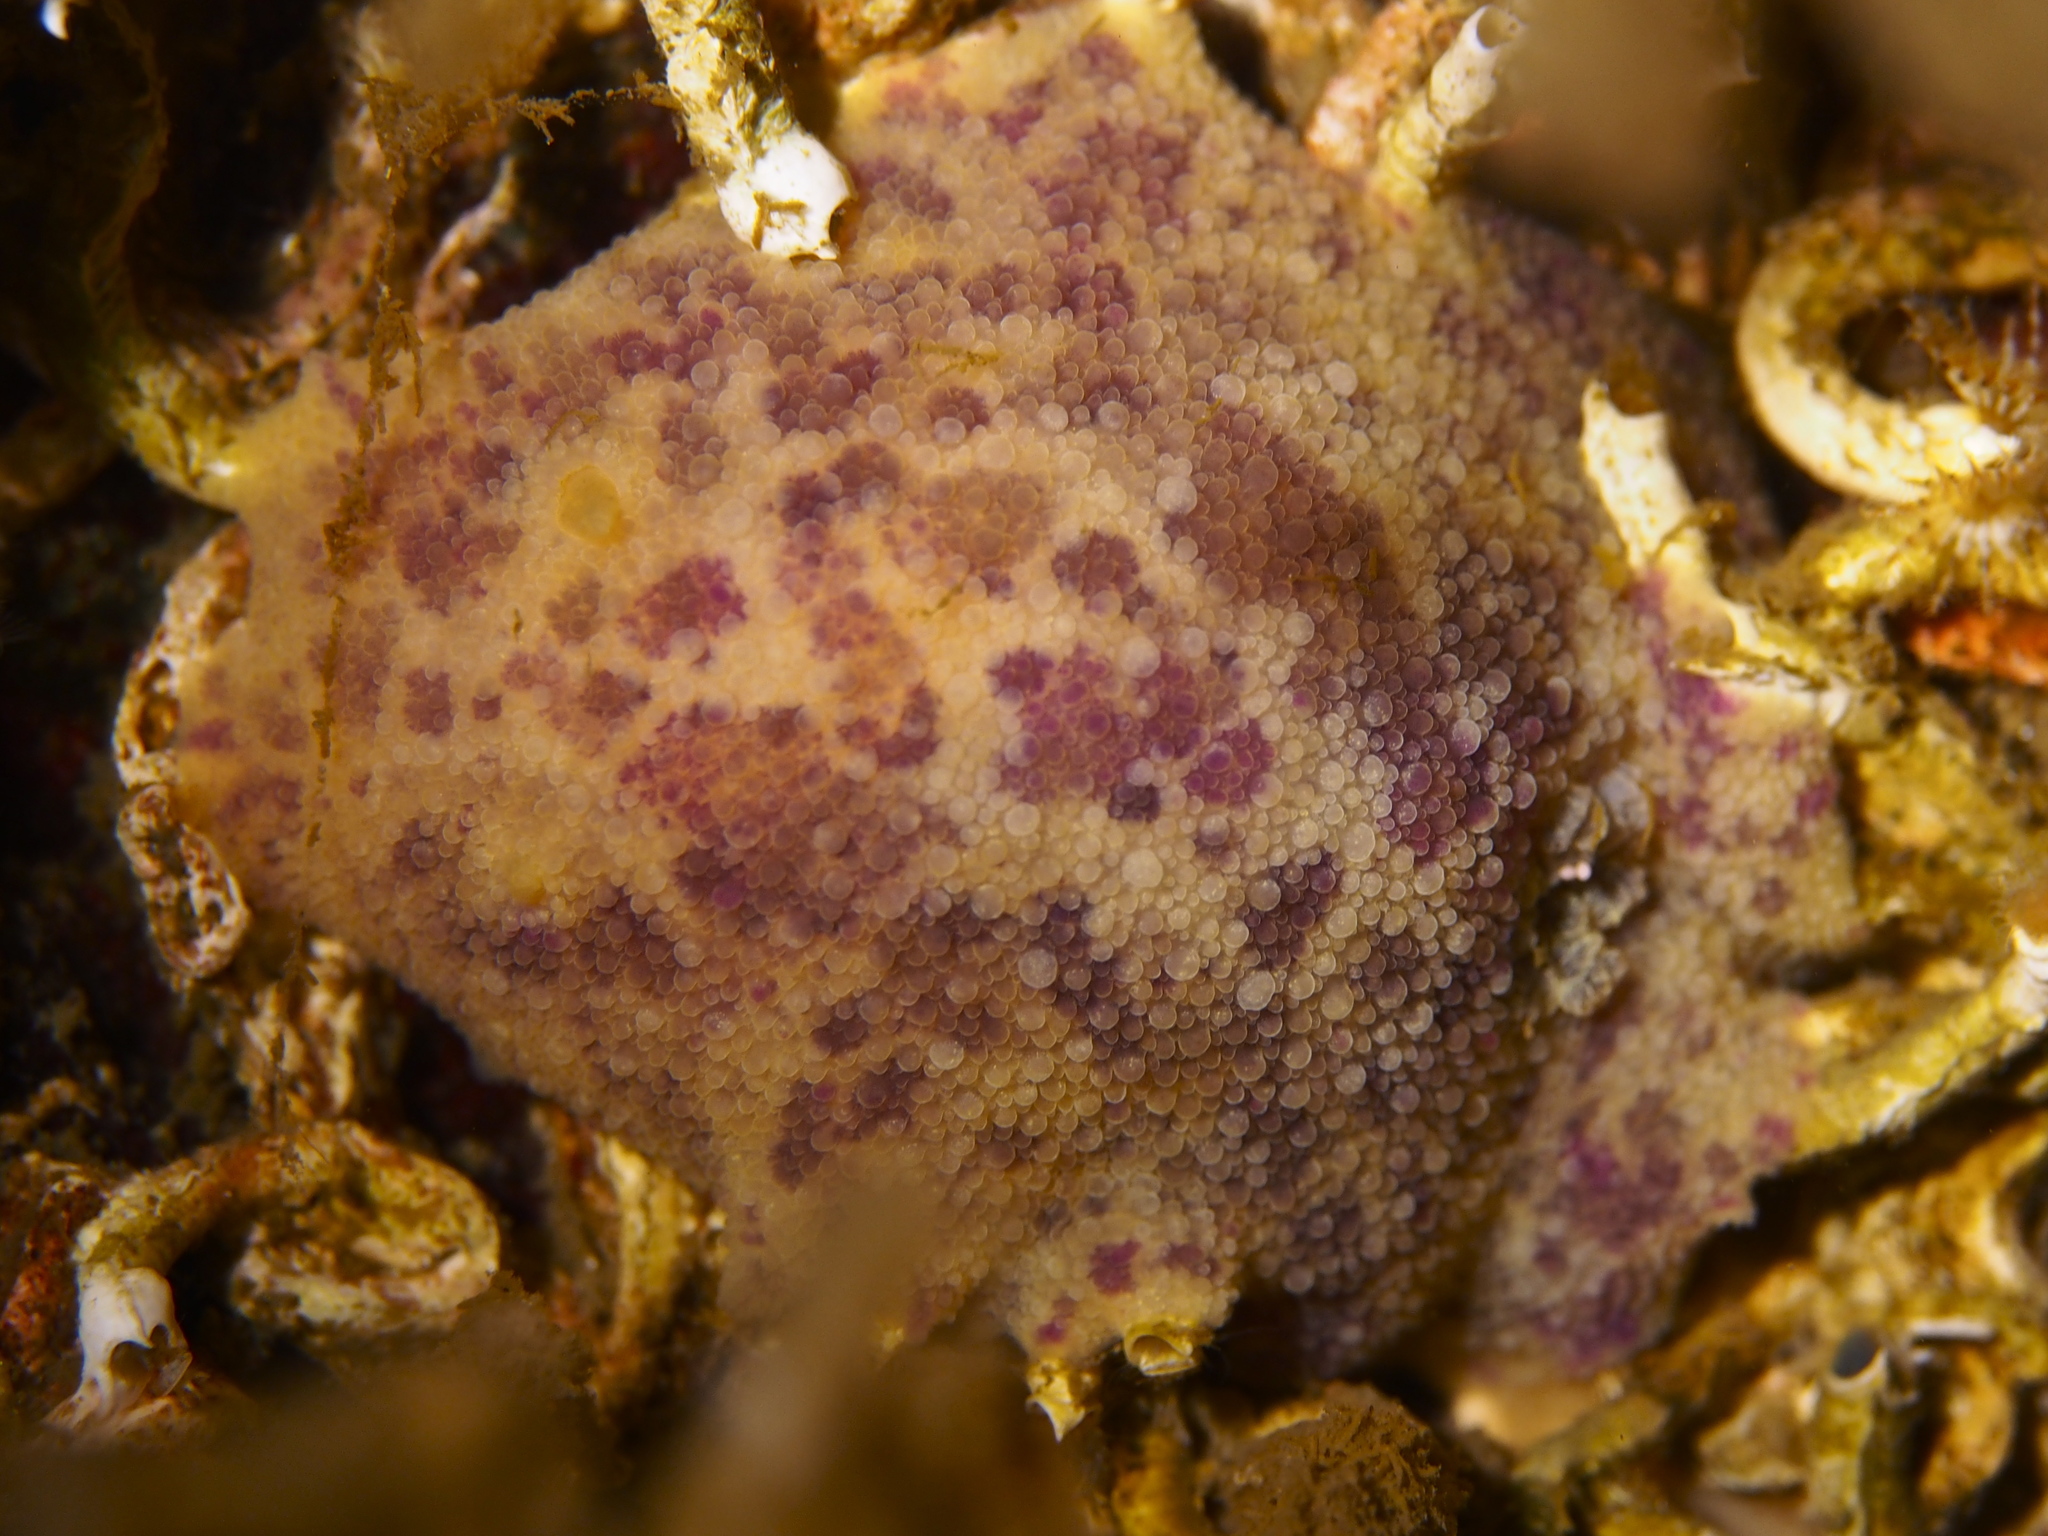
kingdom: Animalia
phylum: Mollusca
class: Gastropoda
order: Nudibranchia
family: Dorididae
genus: Doris
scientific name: Doris pseudoargus
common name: Sea lemon
